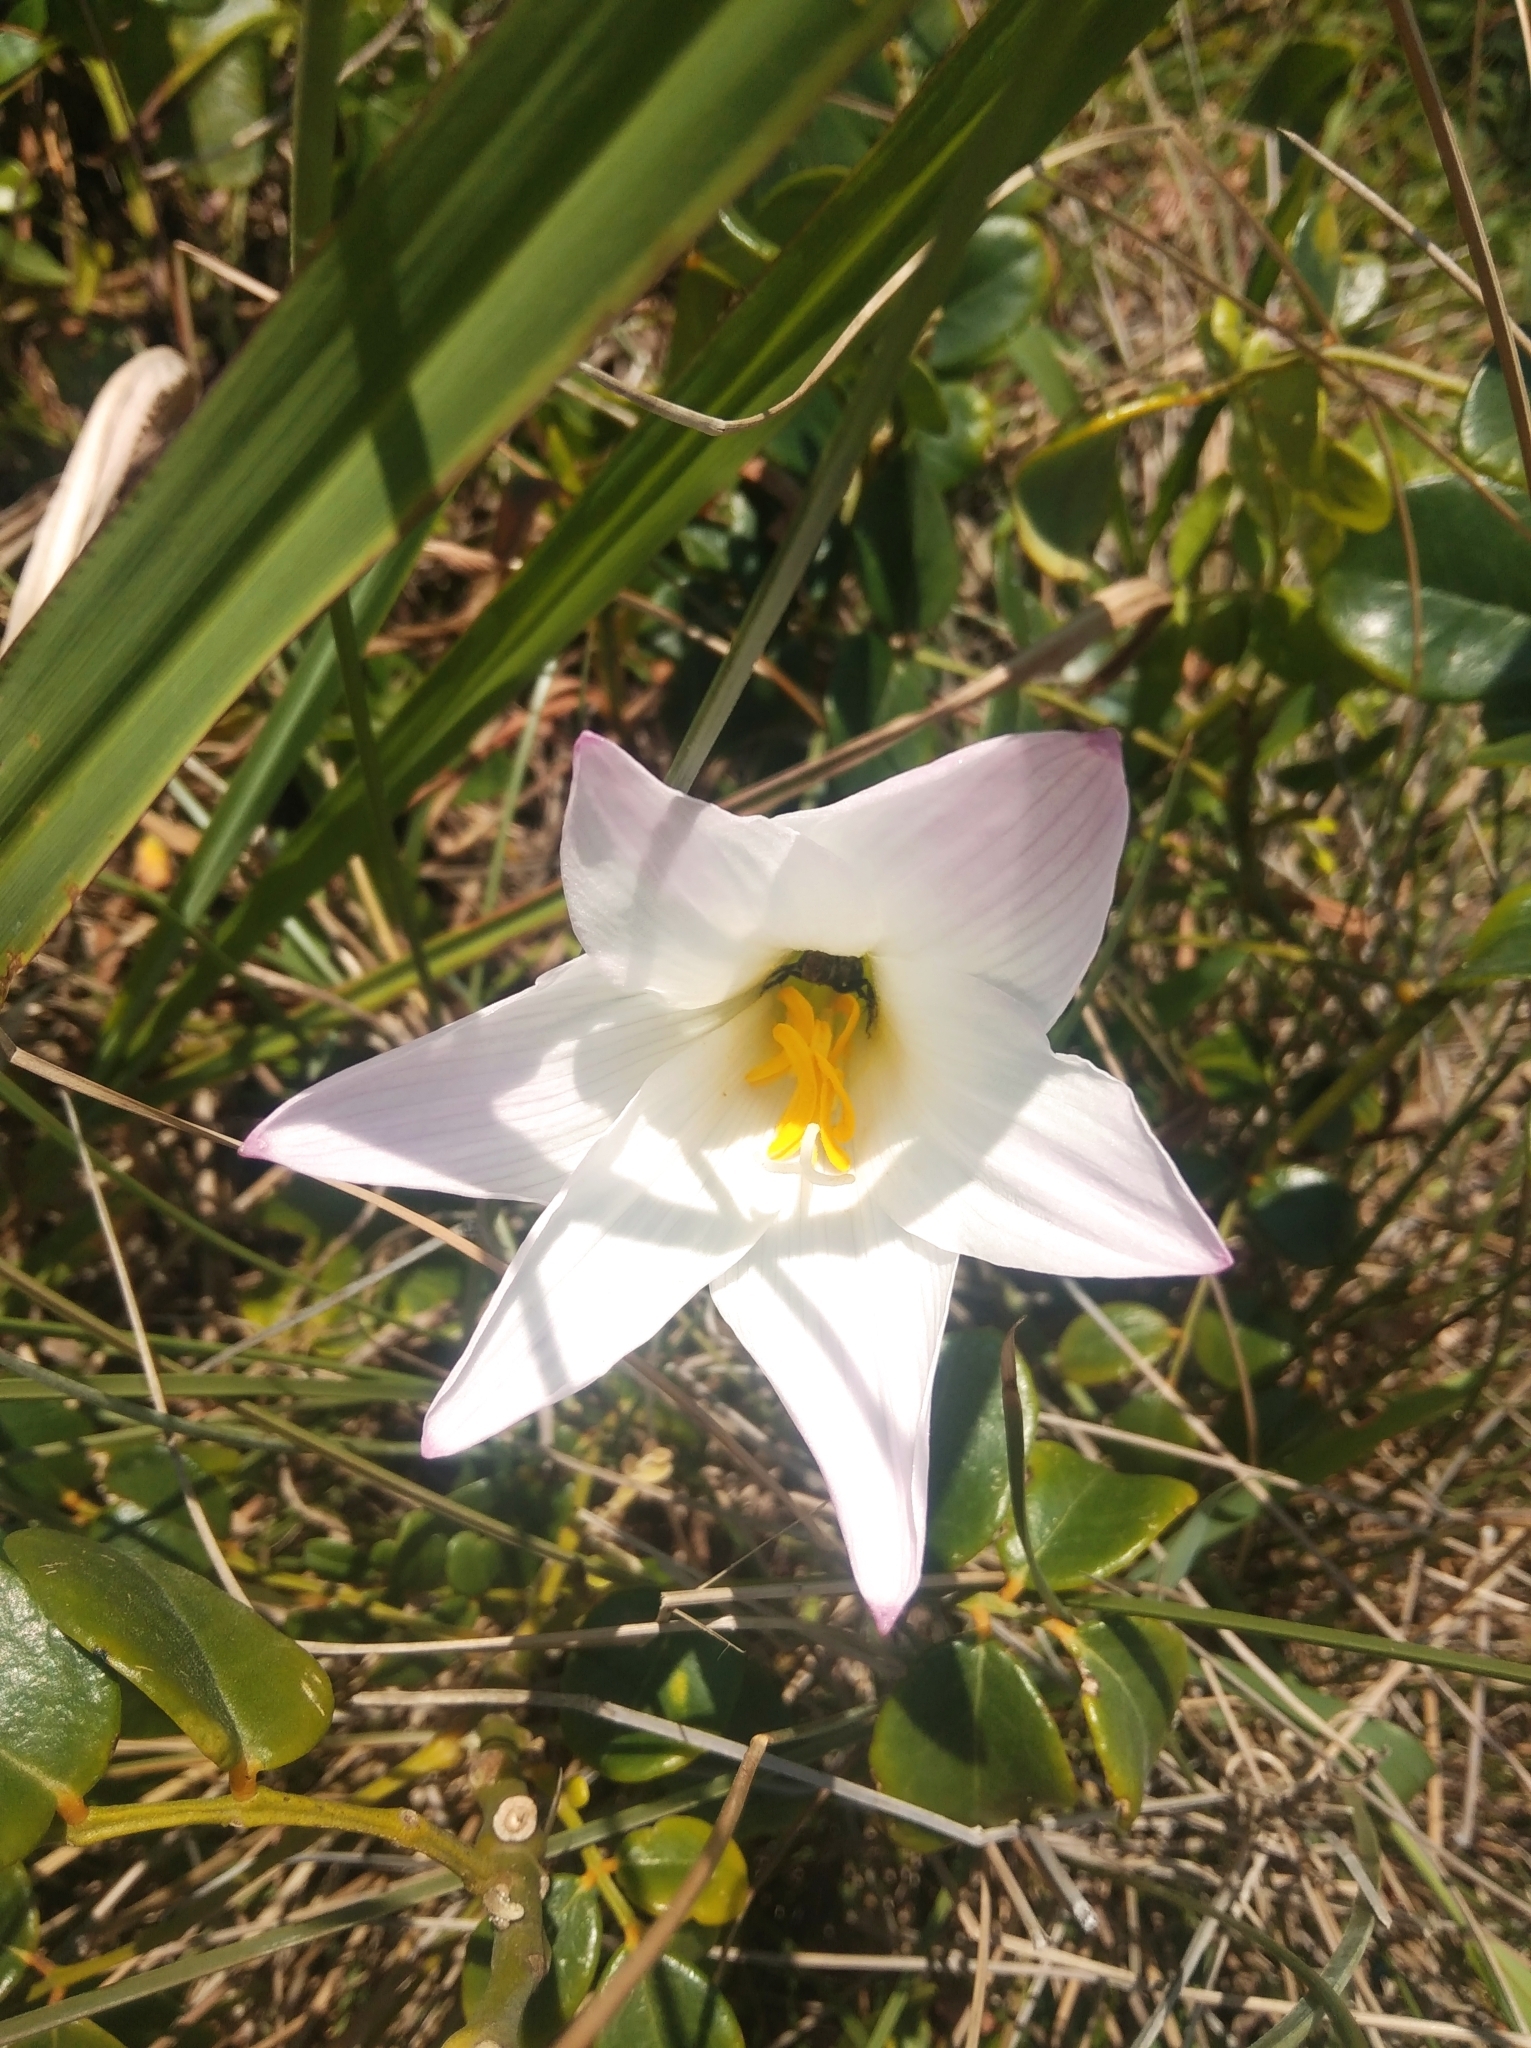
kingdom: Plantae
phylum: Tracheophyta
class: Liliopsida
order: Asparagales
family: Amaryllidaceae
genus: Zephyranthes
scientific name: Zephyranthes robusta
